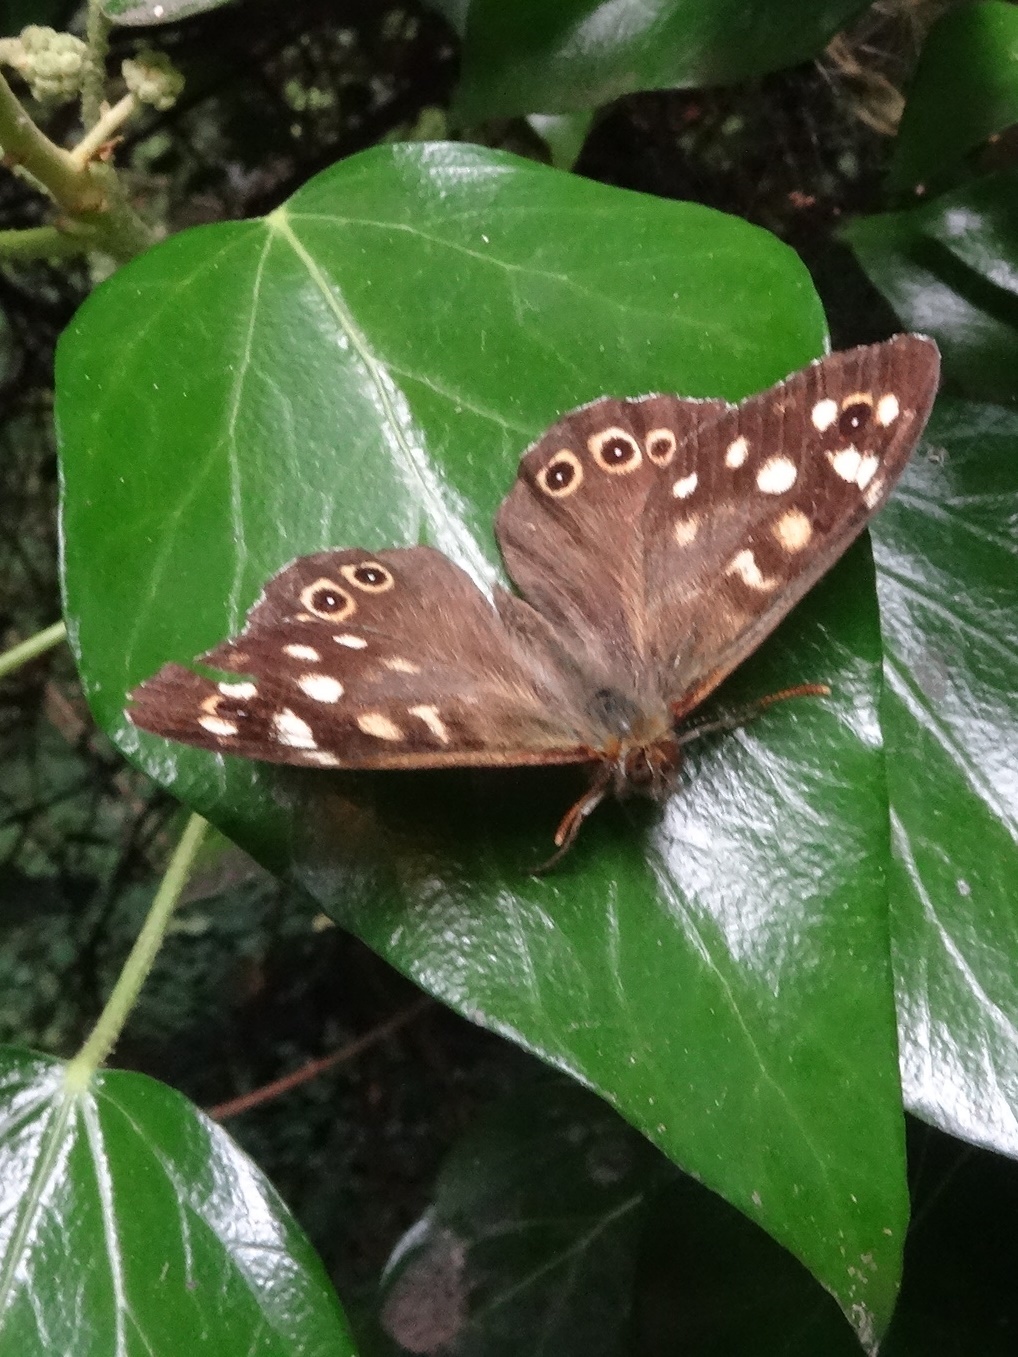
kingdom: Animalia
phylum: Arthropoda
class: Insecta
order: Lepidoptera
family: Nymphalidae
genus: Pararge
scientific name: Pararge aegeria
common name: Speckled wood
